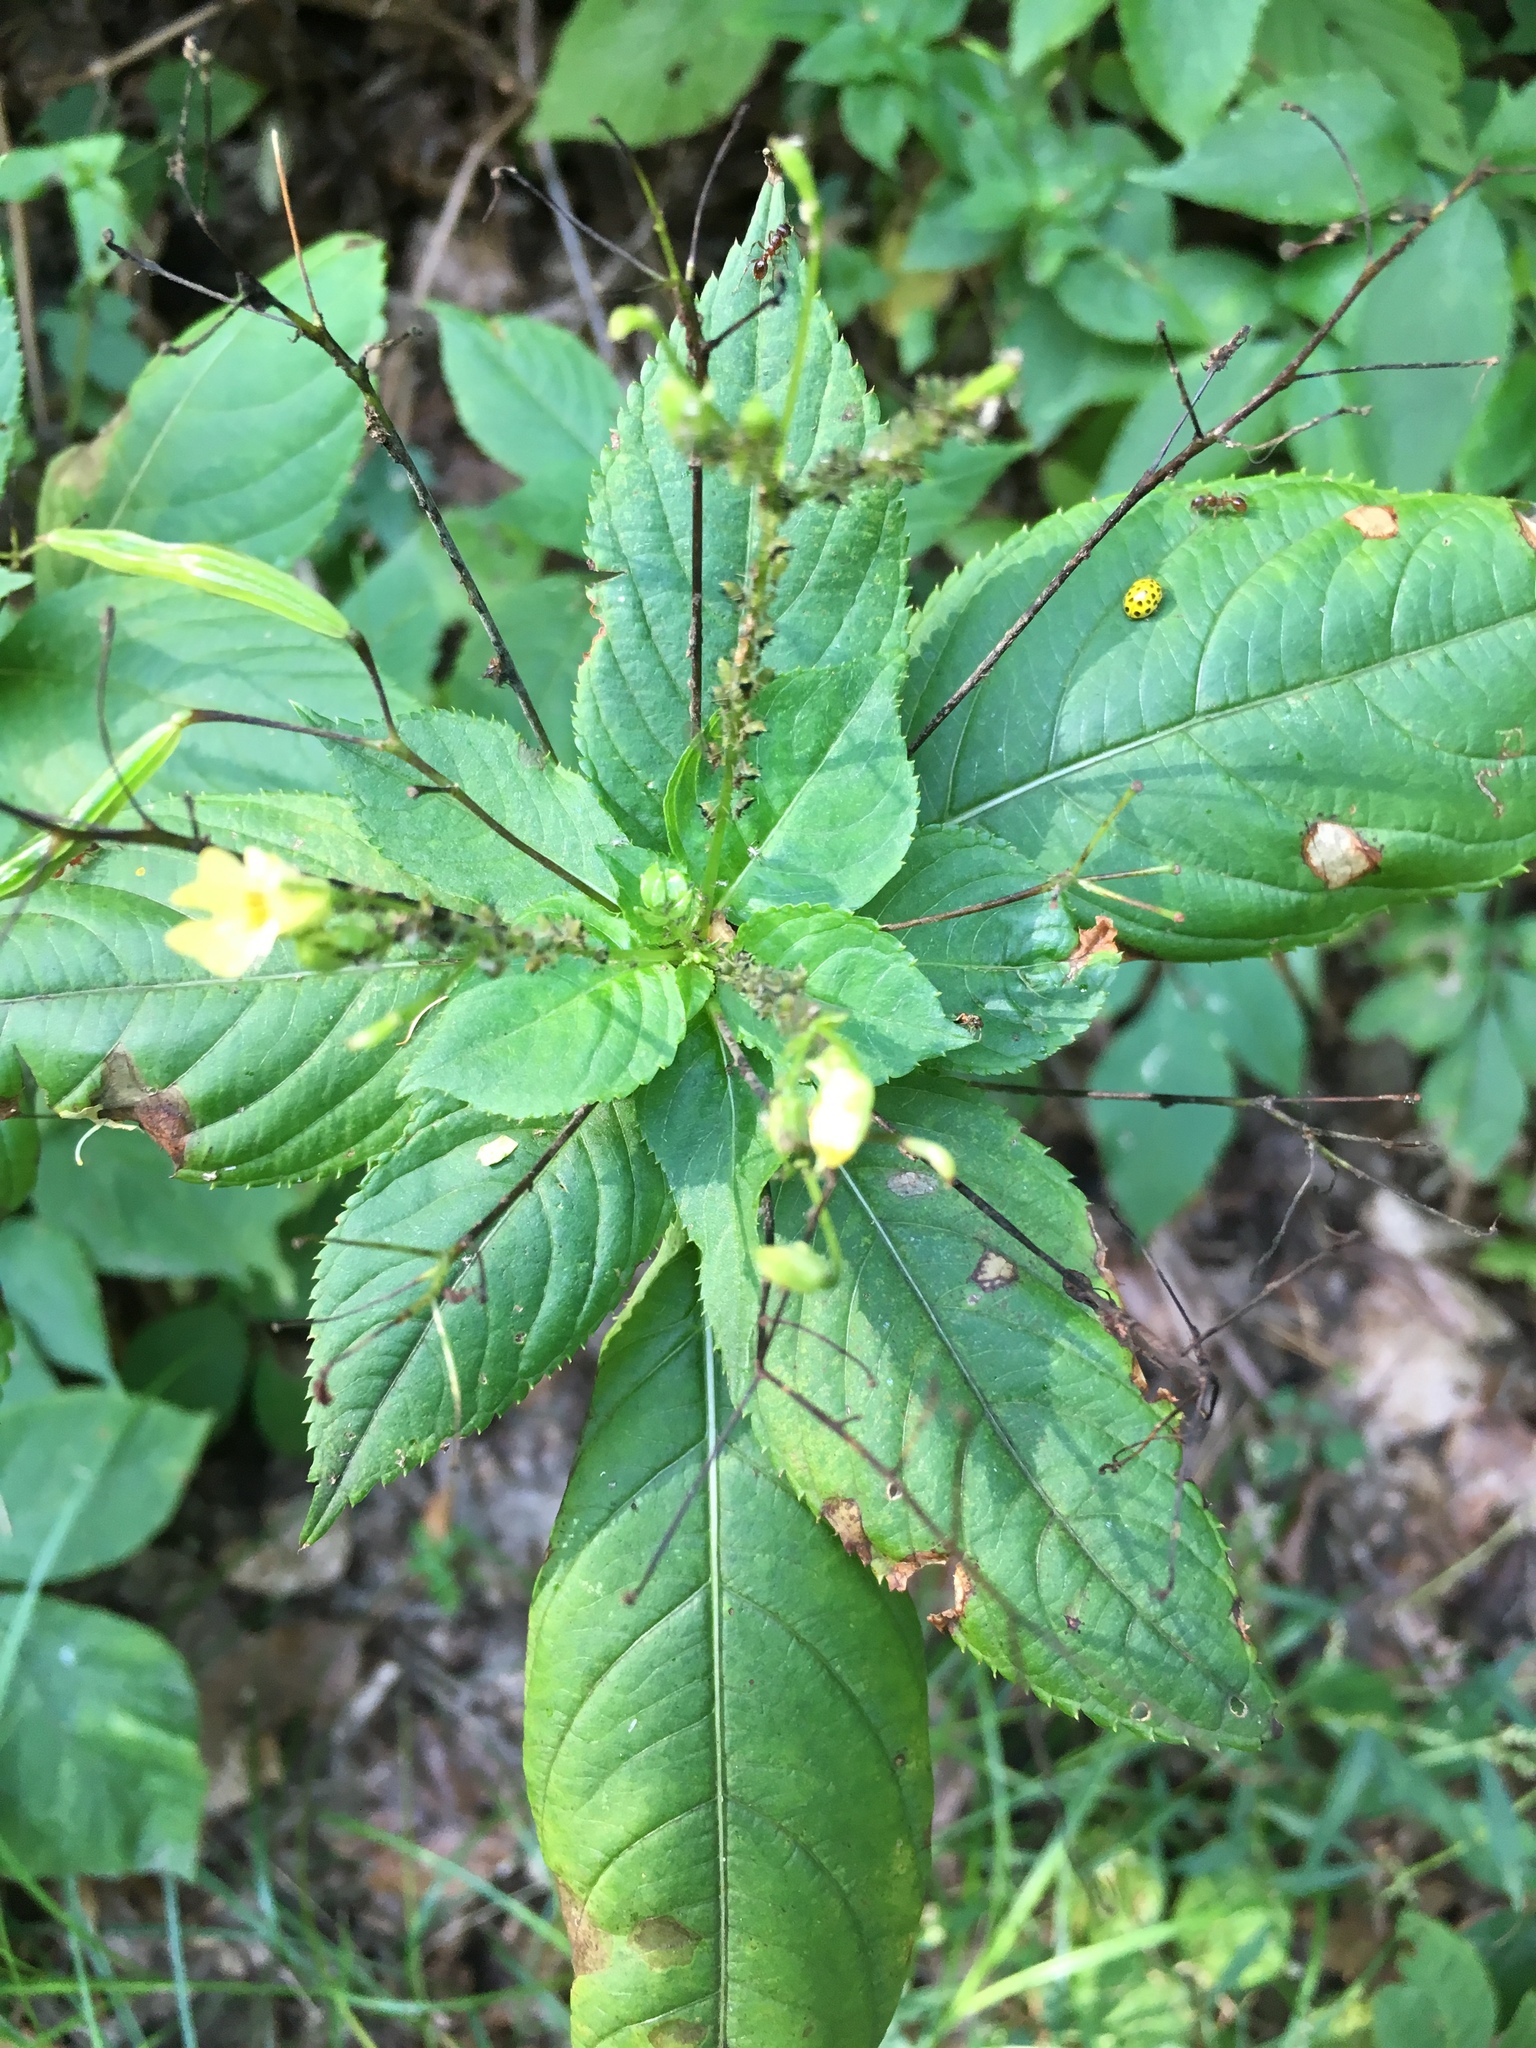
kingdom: Plantae
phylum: Tracheophyta
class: Magnoliopsida
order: Ericales
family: Balsaminaceae
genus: Impatiens
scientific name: Impatiens parviflora
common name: Small balsam
